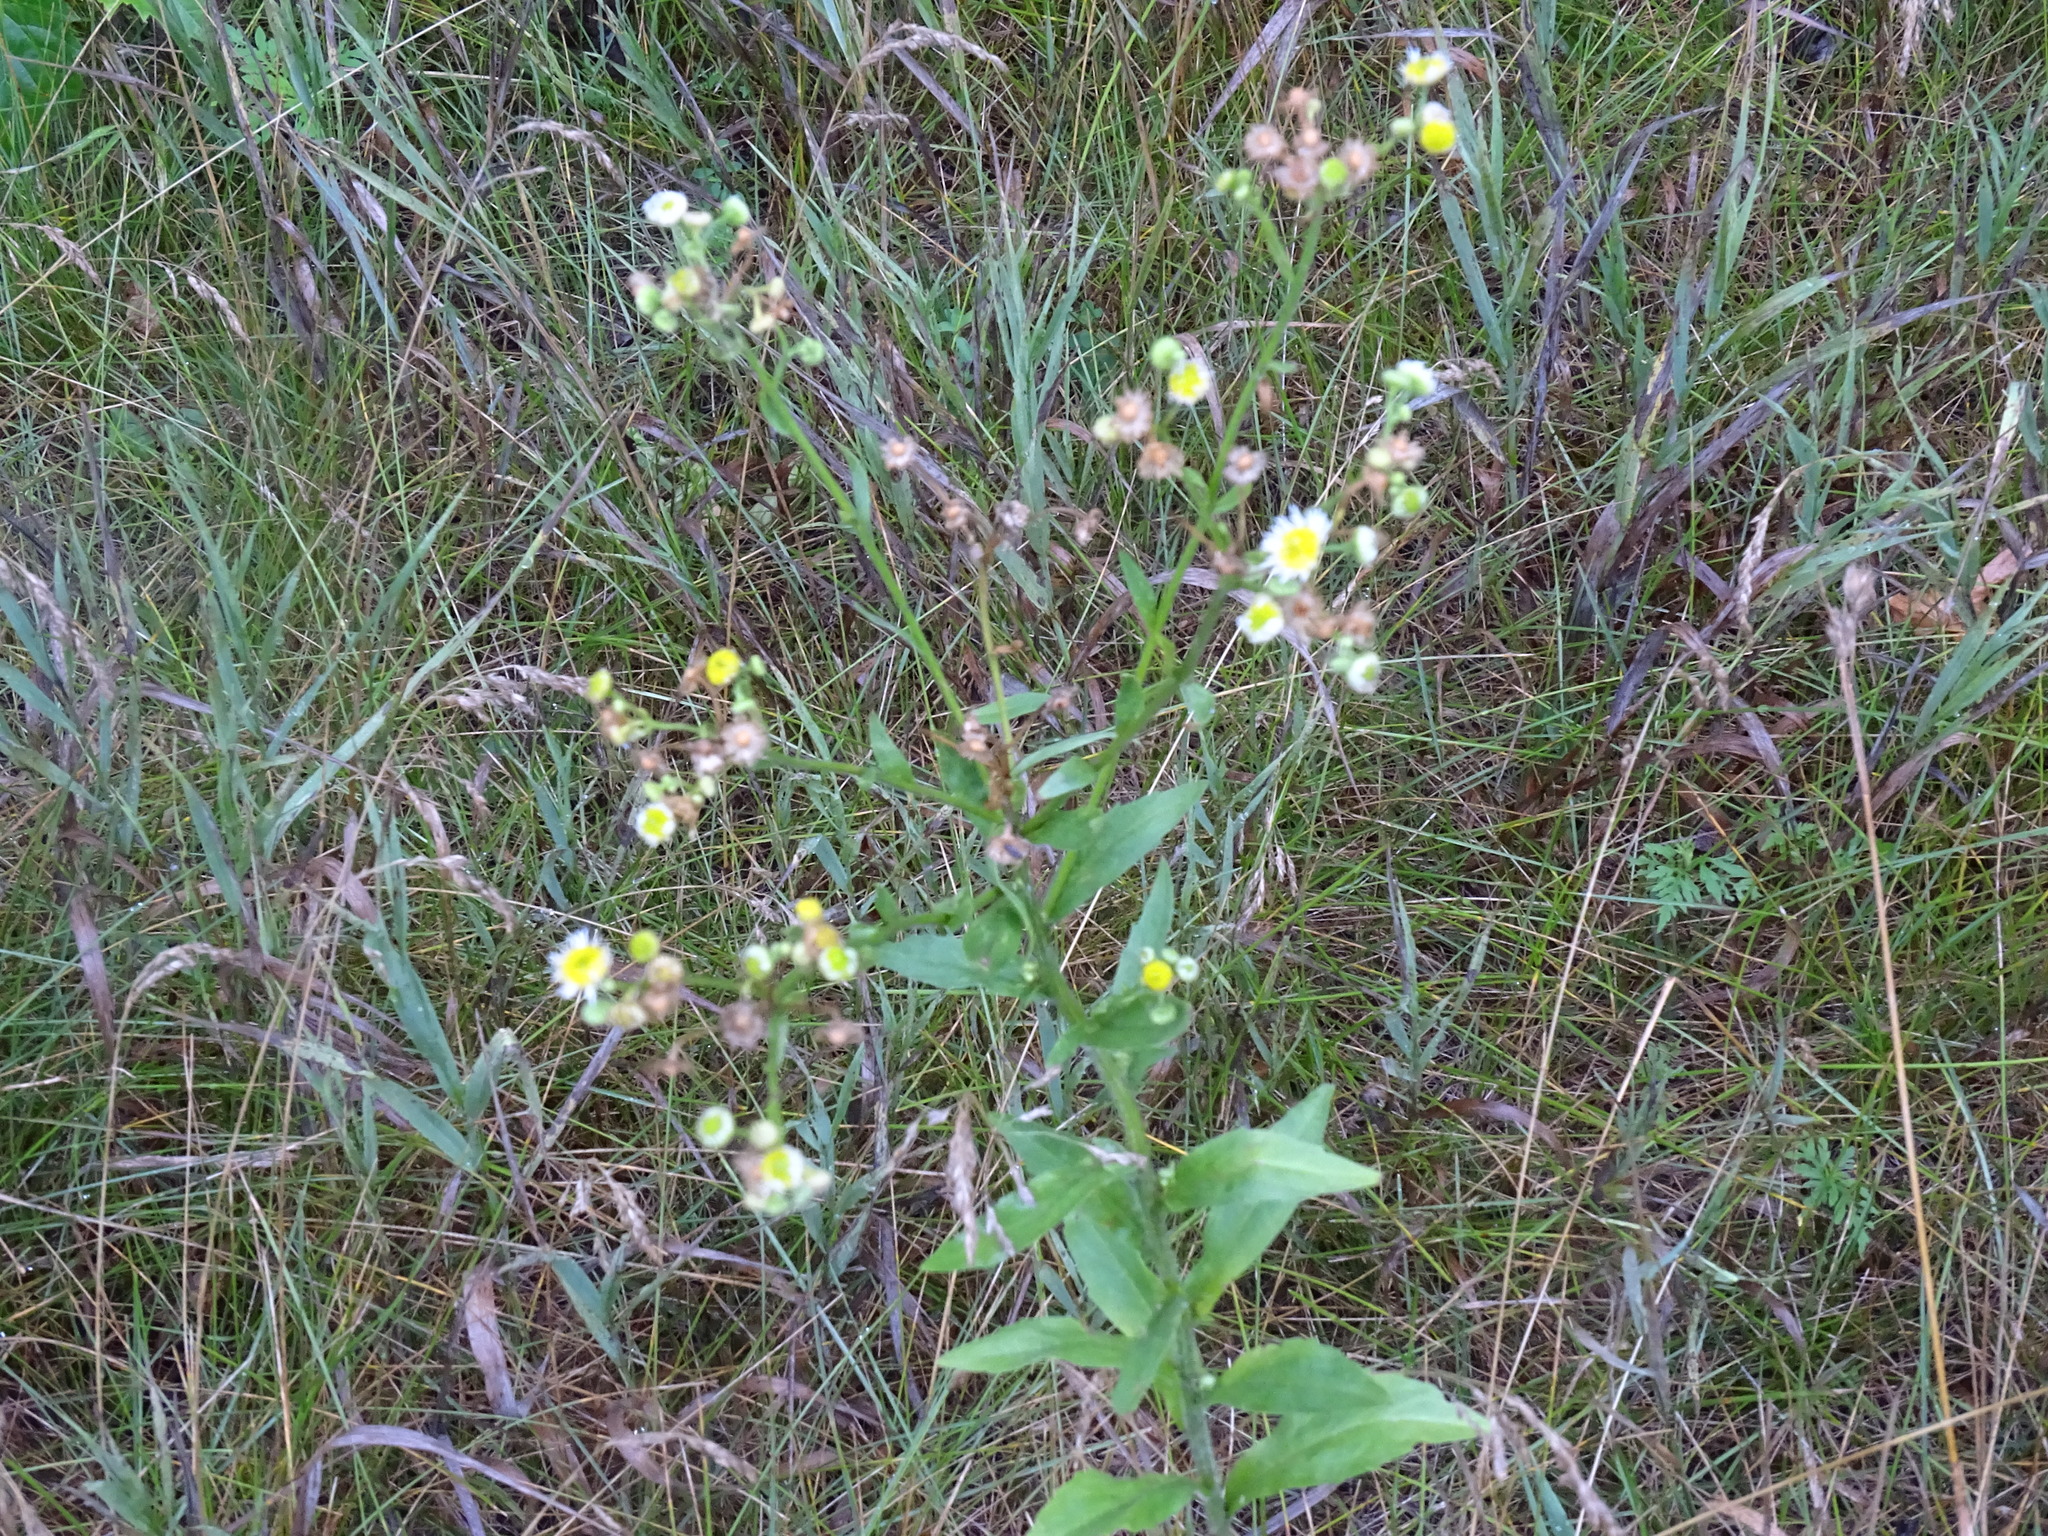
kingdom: Plantae
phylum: Tracheophyta
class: Magnoliopsida
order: Asterales
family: Asteraceae
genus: Erigeron
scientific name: Erigeron annuus
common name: Tall fleabane
